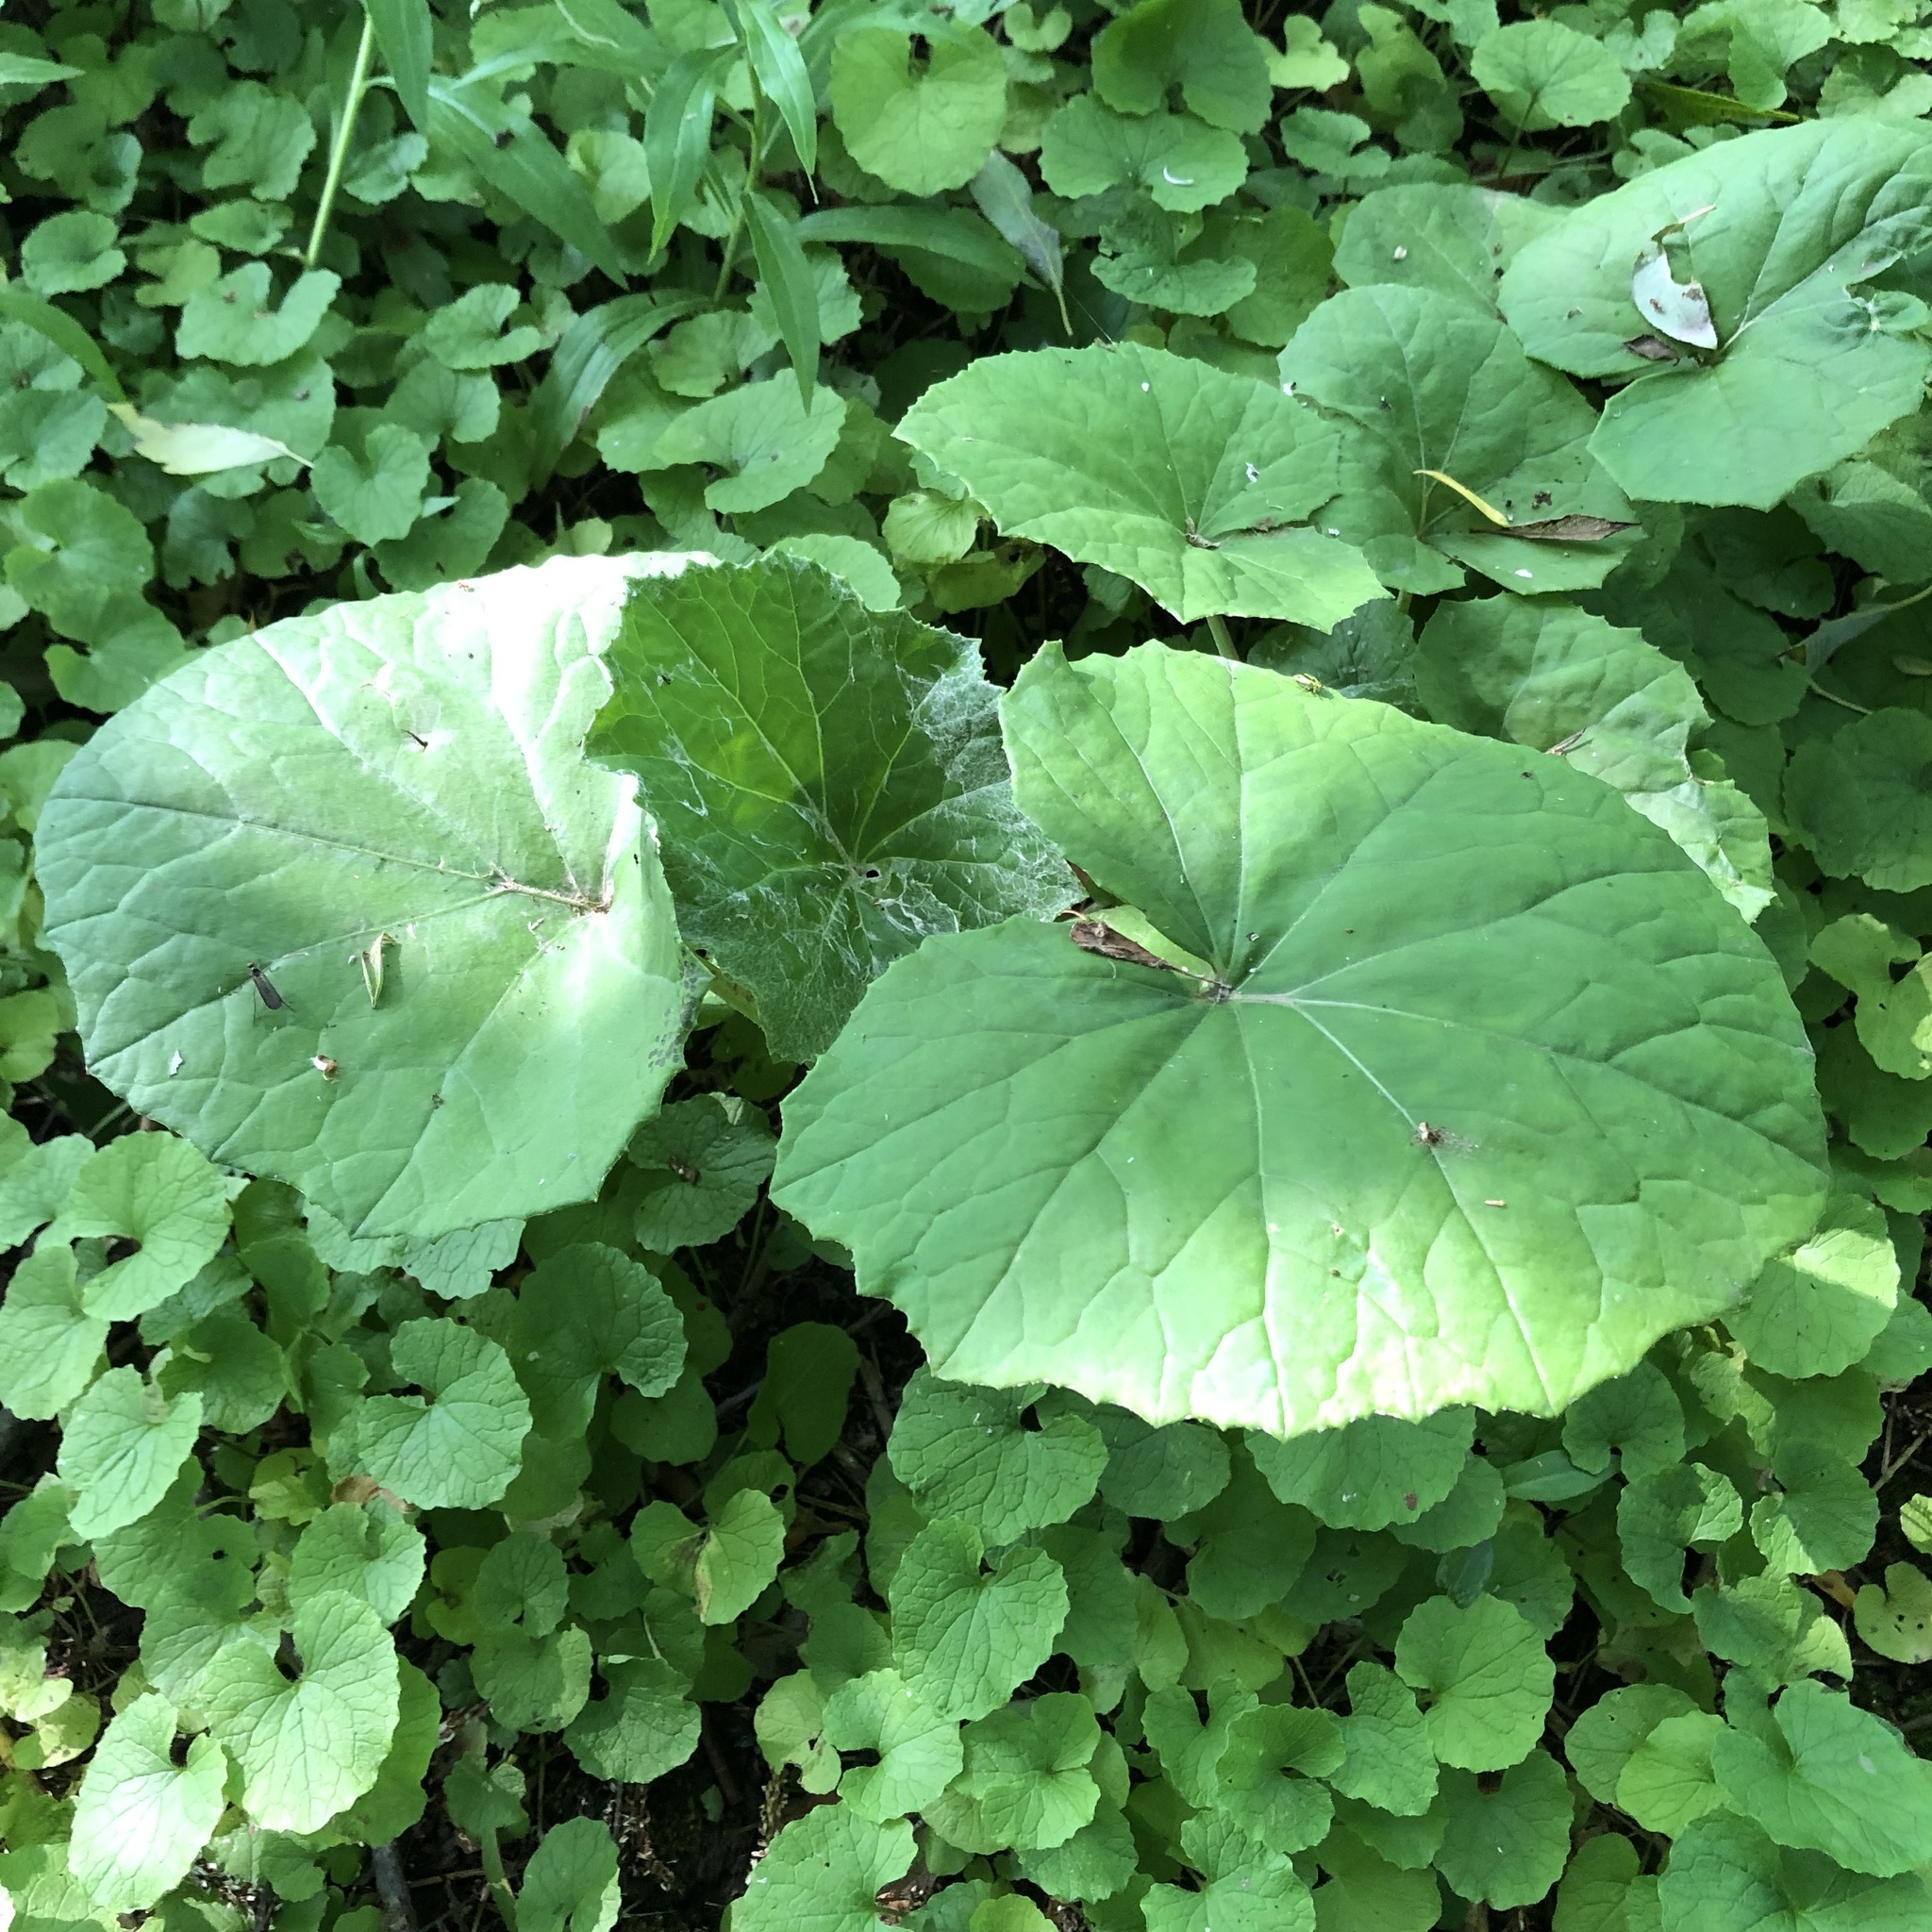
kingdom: Plantae
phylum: Tracheophyta
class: Magnoliopsida
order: Asterales
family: Asteraceae
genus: Tussilago
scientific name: Tussilago farfara
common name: Coltsfoot
